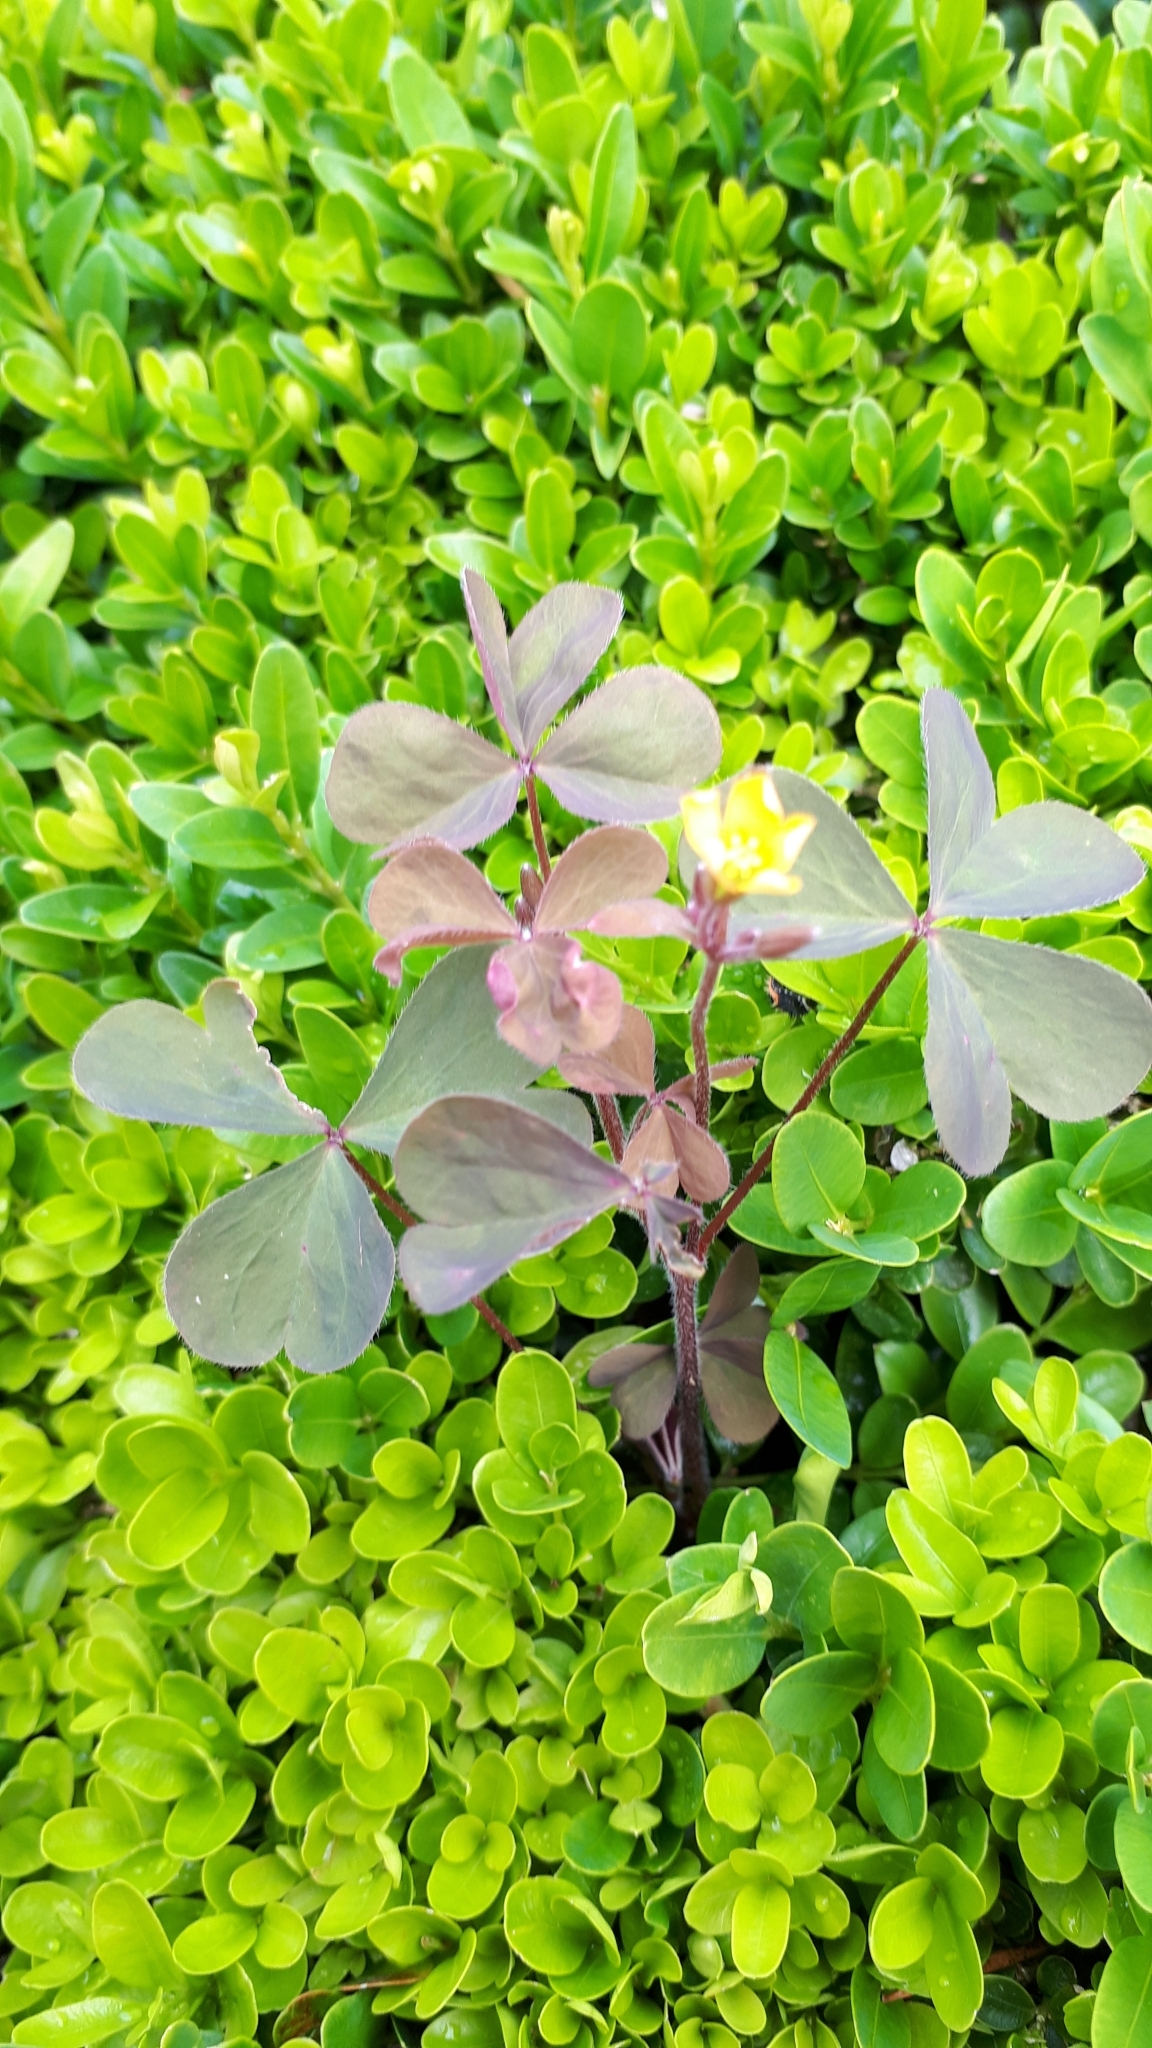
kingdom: Plantae
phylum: Tracheophyta
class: Magnoliopsida
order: Oxalidales
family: Oxalidaceae
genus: Oxalis
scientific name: Oxalis corniculata
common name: Procumbent yellow-sorrel
